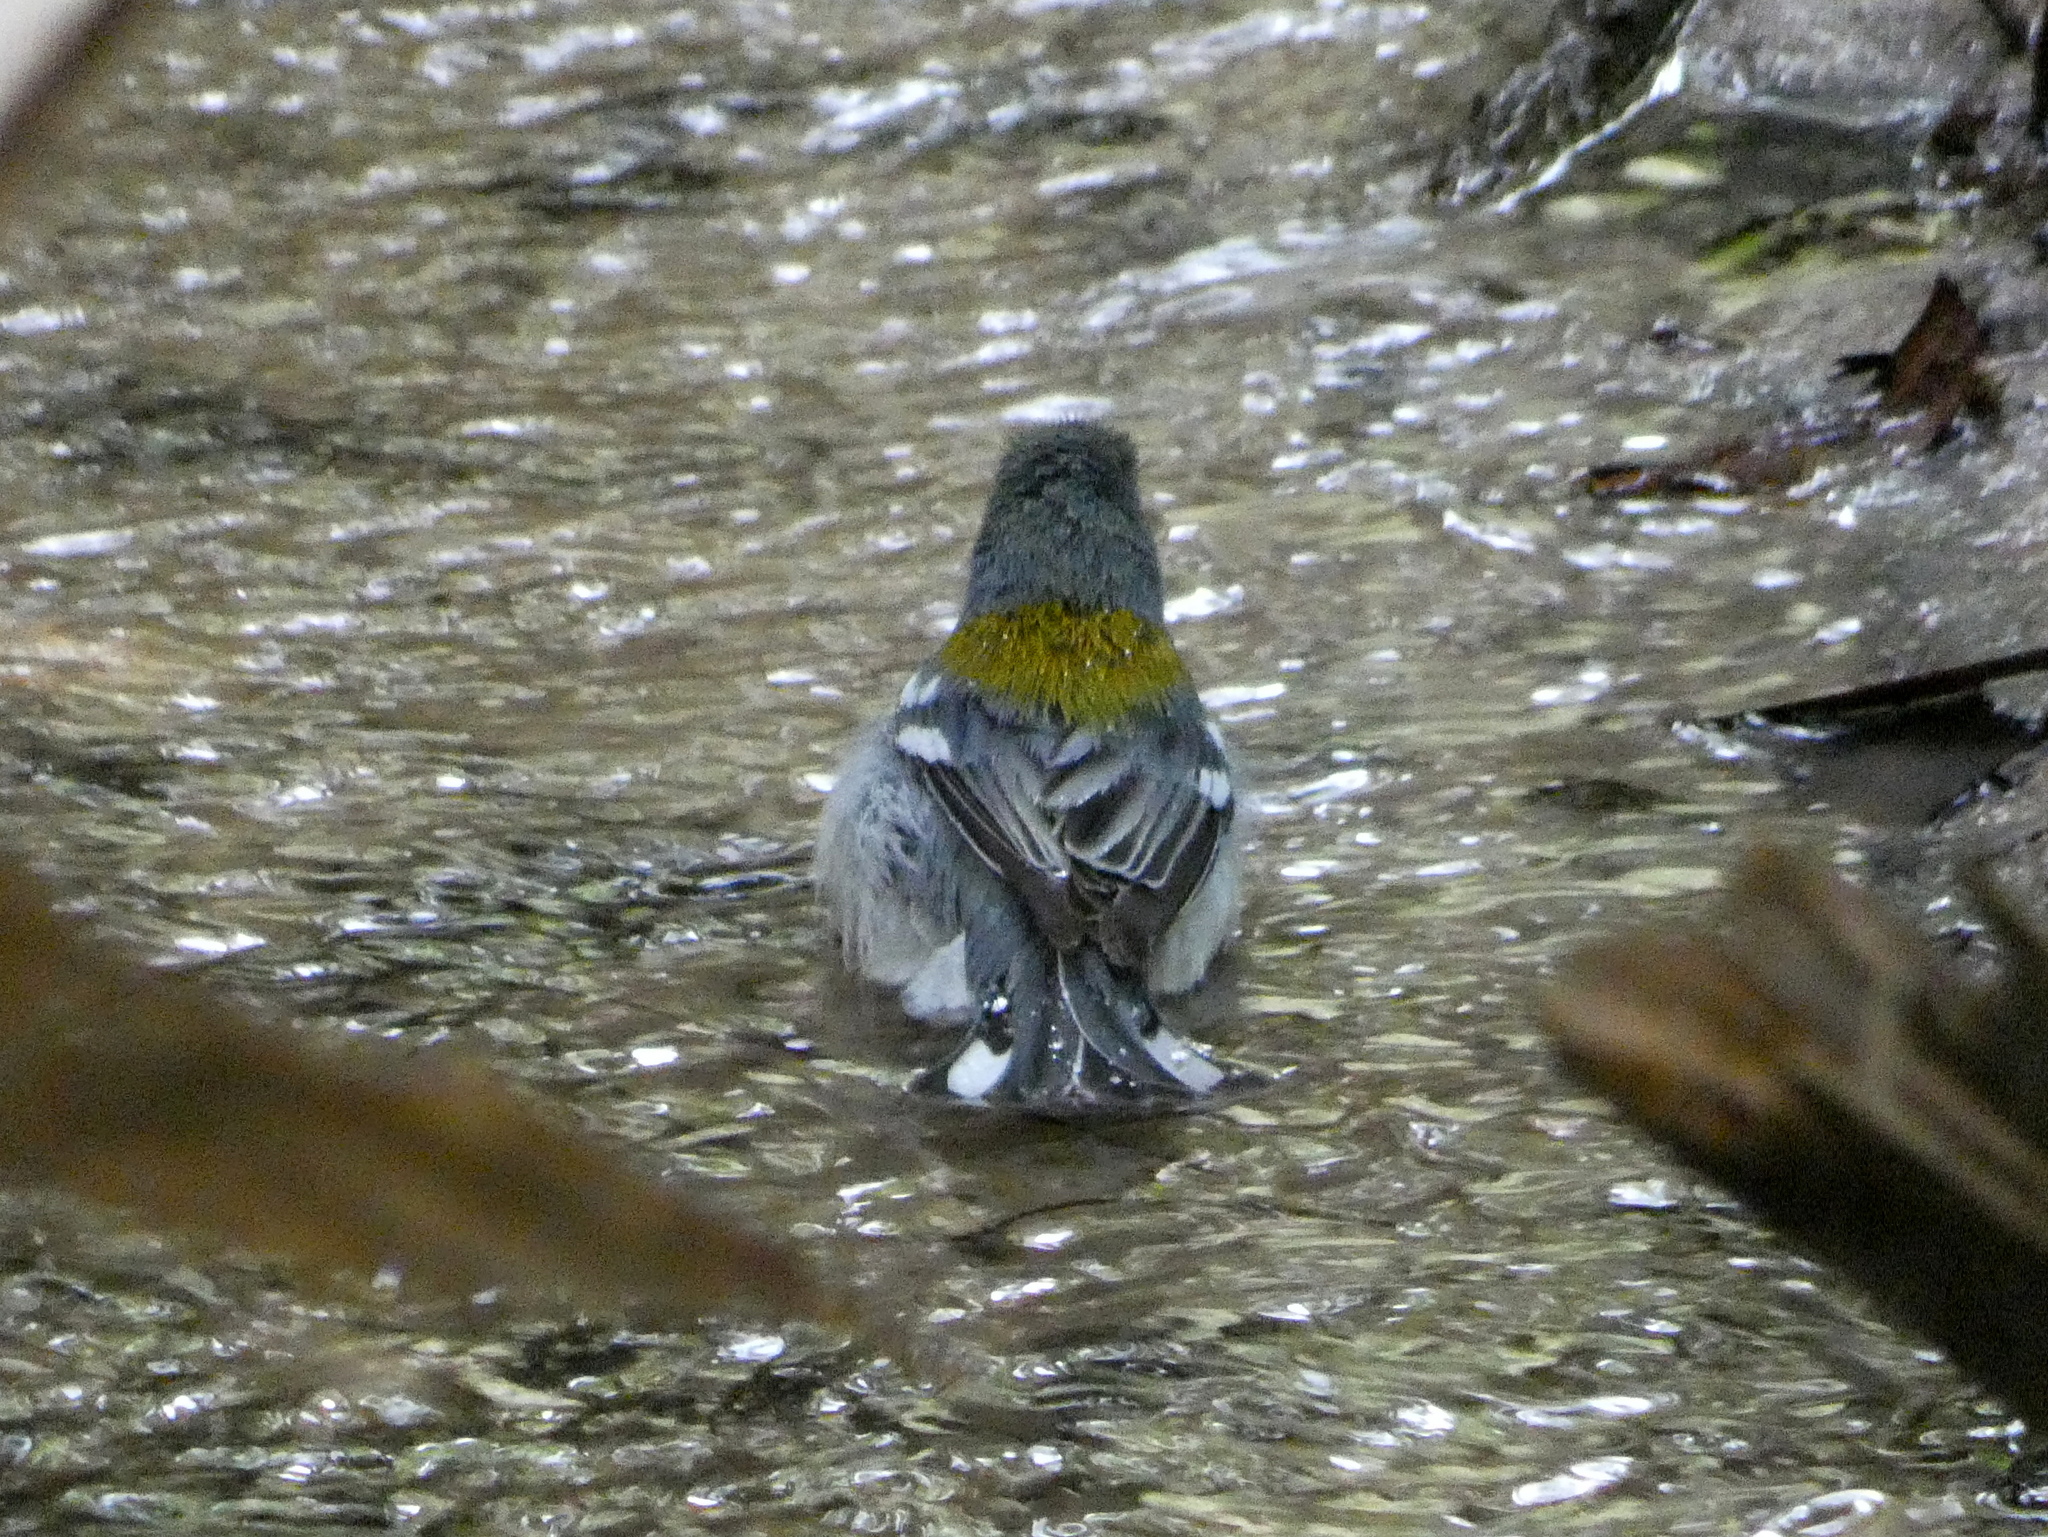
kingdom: Animalia
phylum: Chordata
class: Aves
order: Passeriformes
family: Parulidae
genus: Setophaga
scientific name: Setophaga americana
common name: Northern parula
